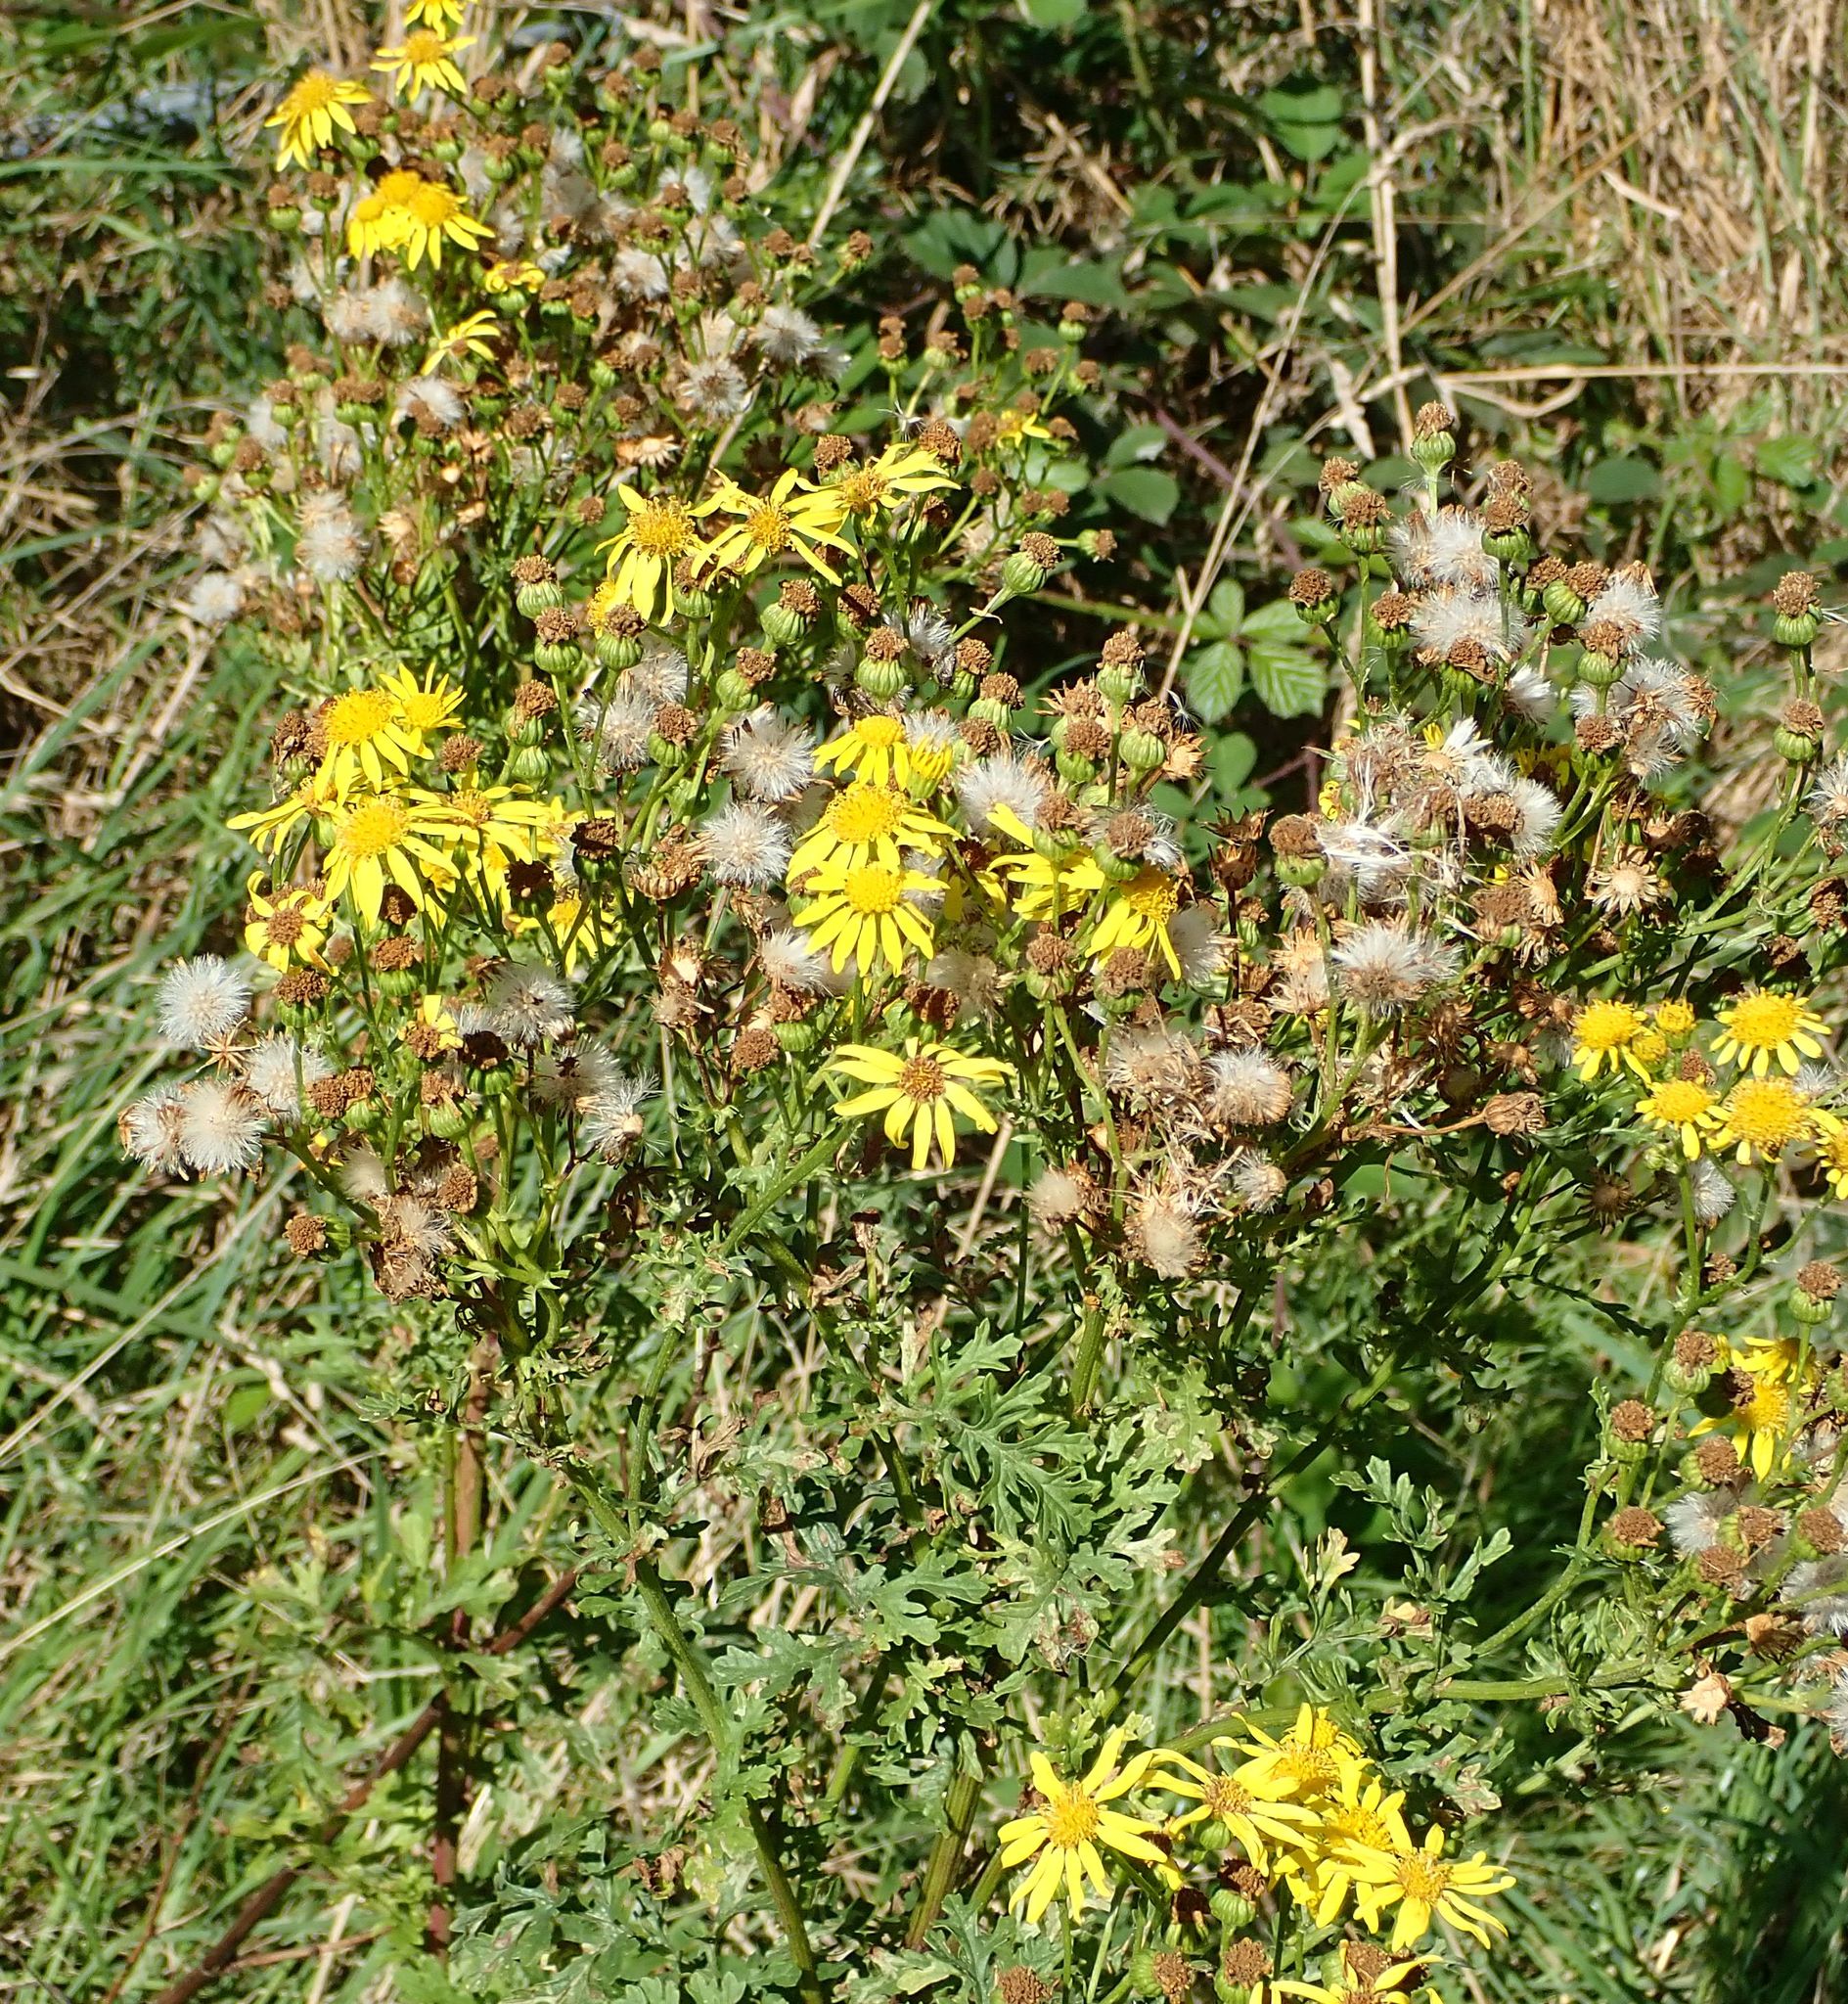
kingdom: Plantae
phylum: Tracheophyta
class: Magnoliopsida
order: Asterales
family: Asteraceae
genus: Jacobaea
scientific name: Jacobaea vulgaris
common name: Stinking willie
